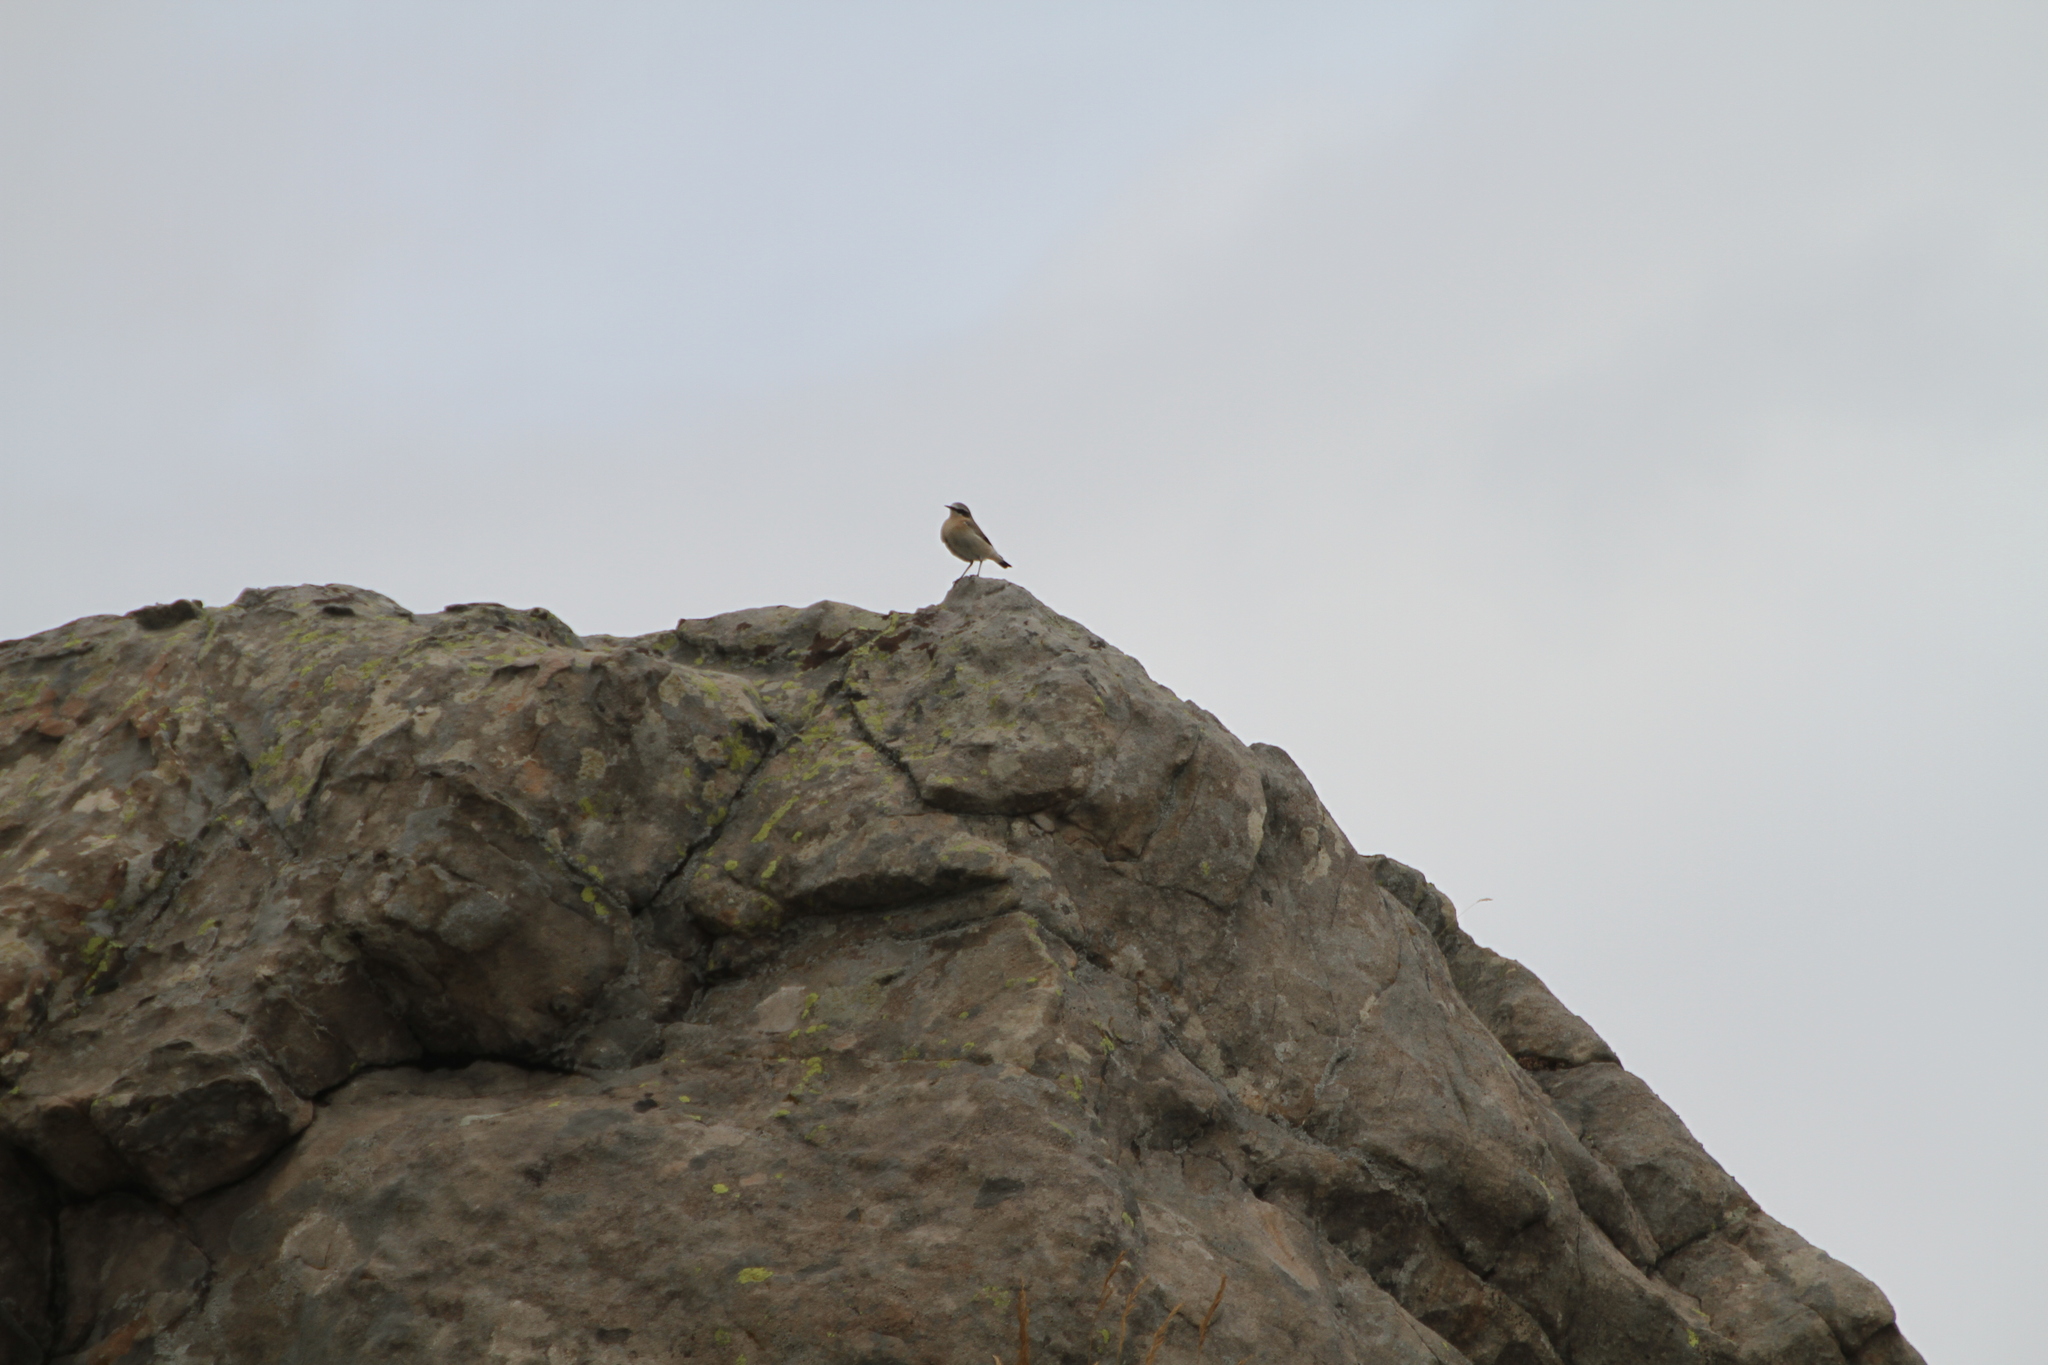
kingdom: Animalia
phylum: Chordata
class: Aves
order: Passeriformes
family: Muscicapidae
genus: Oenanthe
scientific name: Oenanthe oenanthe
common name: Northern wheatear
